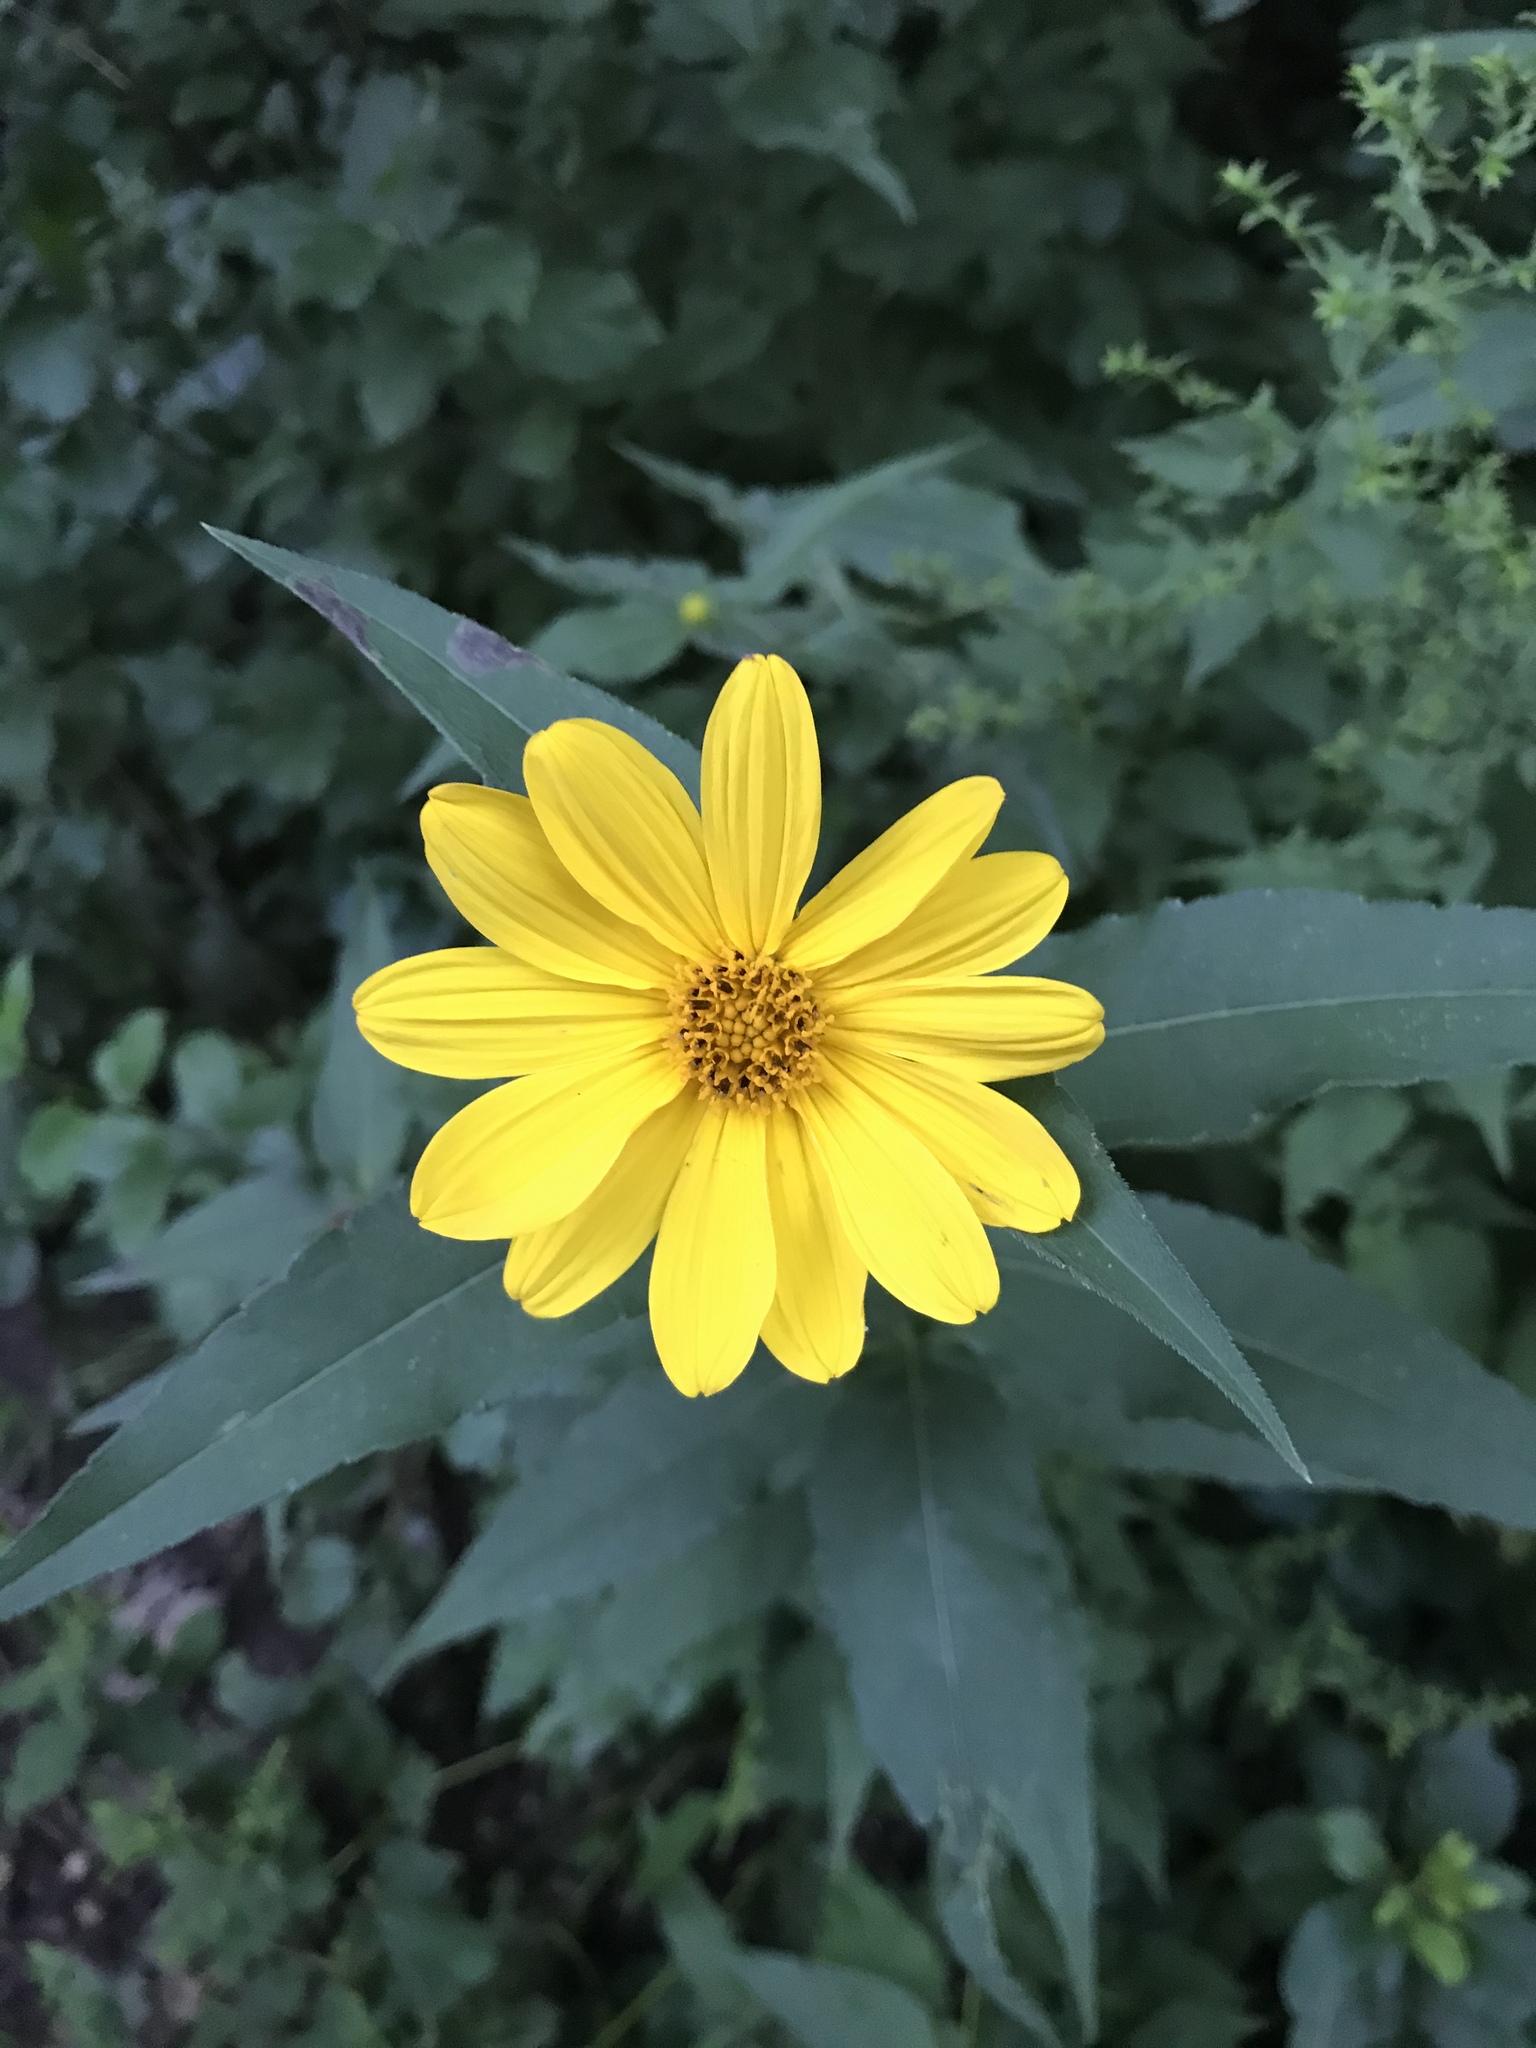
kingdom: Plantae
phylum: Tracheophyta
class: Magnoliopsida
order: Asterales
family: Asteraceae
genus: Helianthus
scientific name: Helianthus divaricatus
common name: Divergent sunflower
